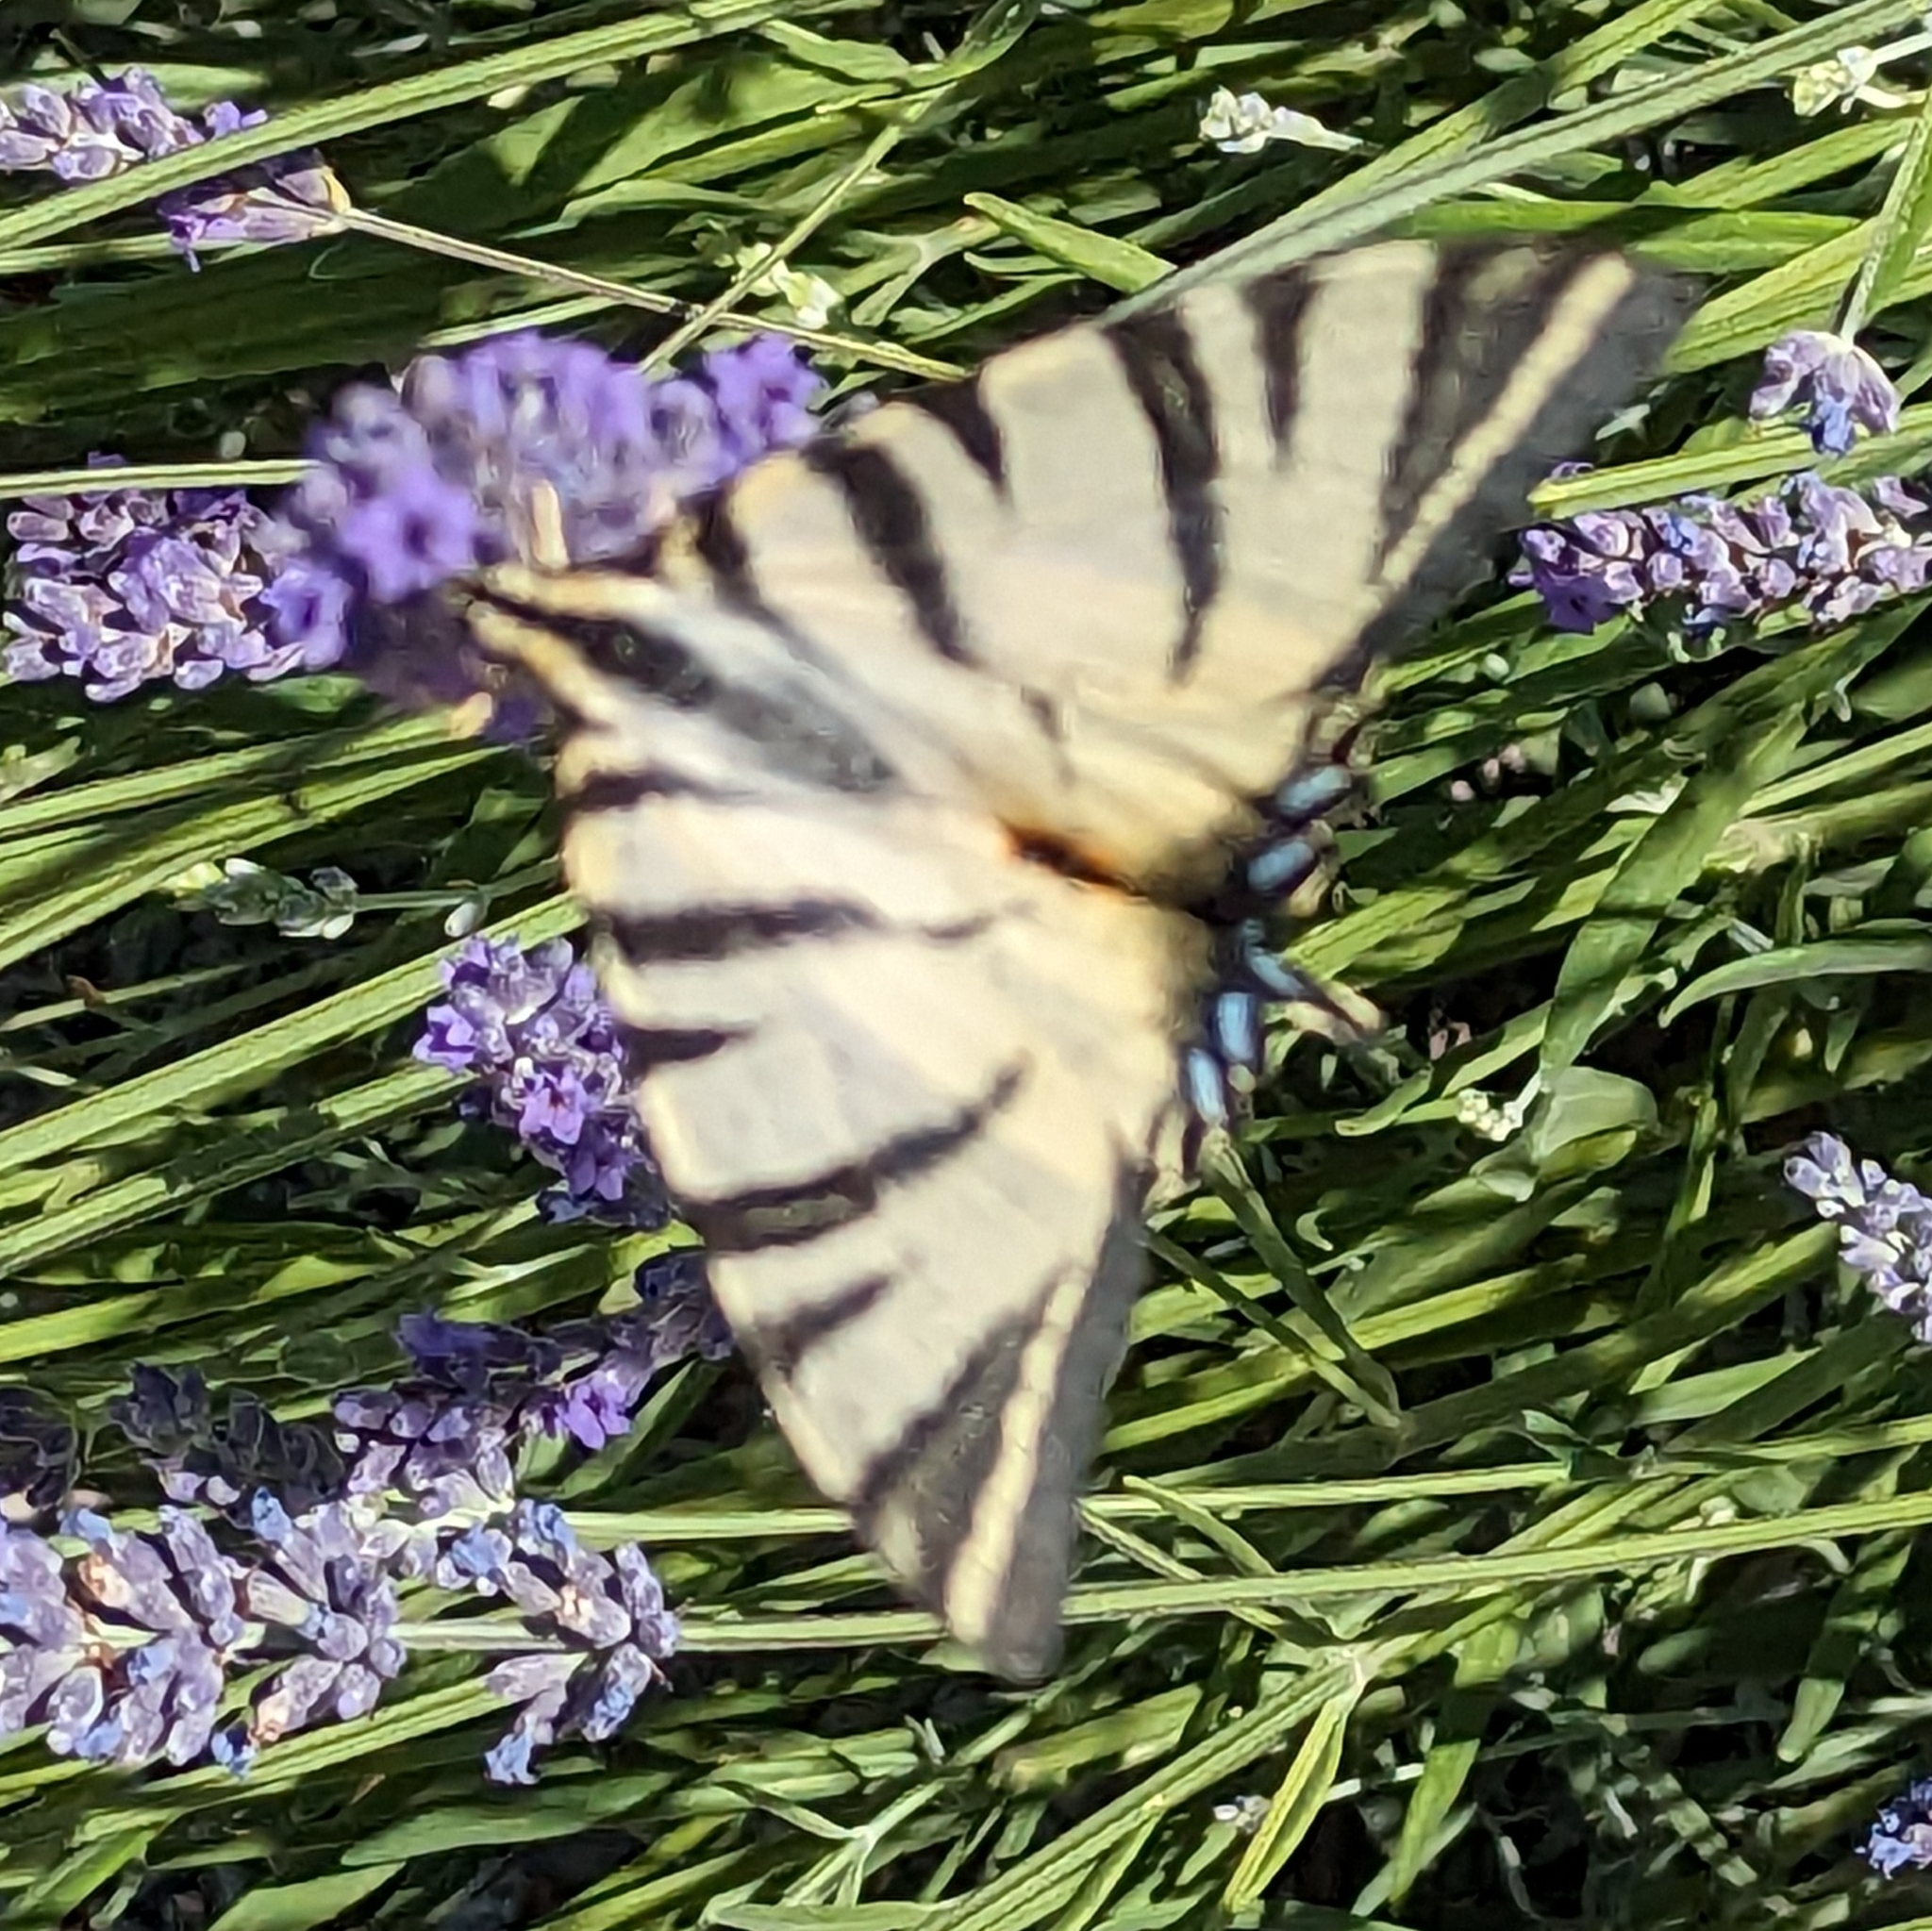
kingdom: Animalia
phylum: Arthropoda
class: Insecta
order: Lepidoptera
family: Papilionidae
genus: Iphiclides
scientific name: Iphiclides podalirius
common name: Scarce swallowtail
